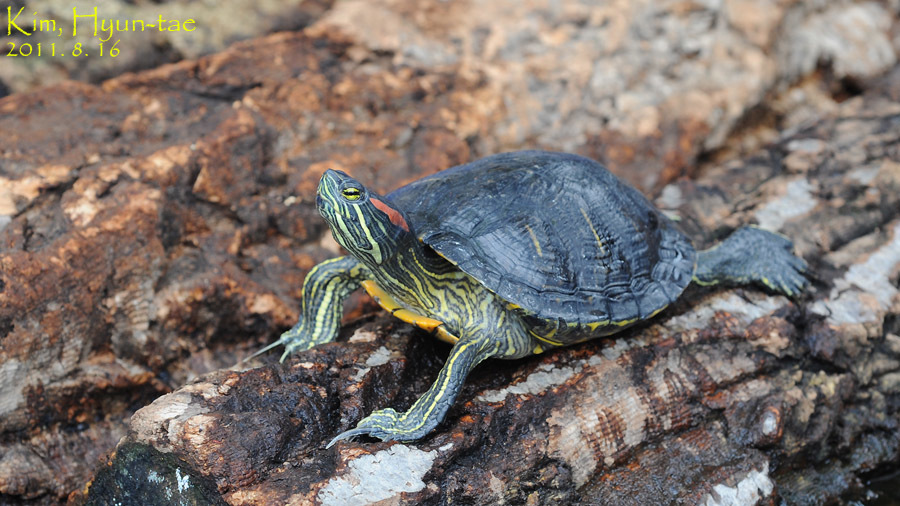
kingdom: Animalia
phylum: Chordata
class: Testudines
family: Emydidae
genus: Trachemys
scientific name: Trachemys scripta
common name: Slider
